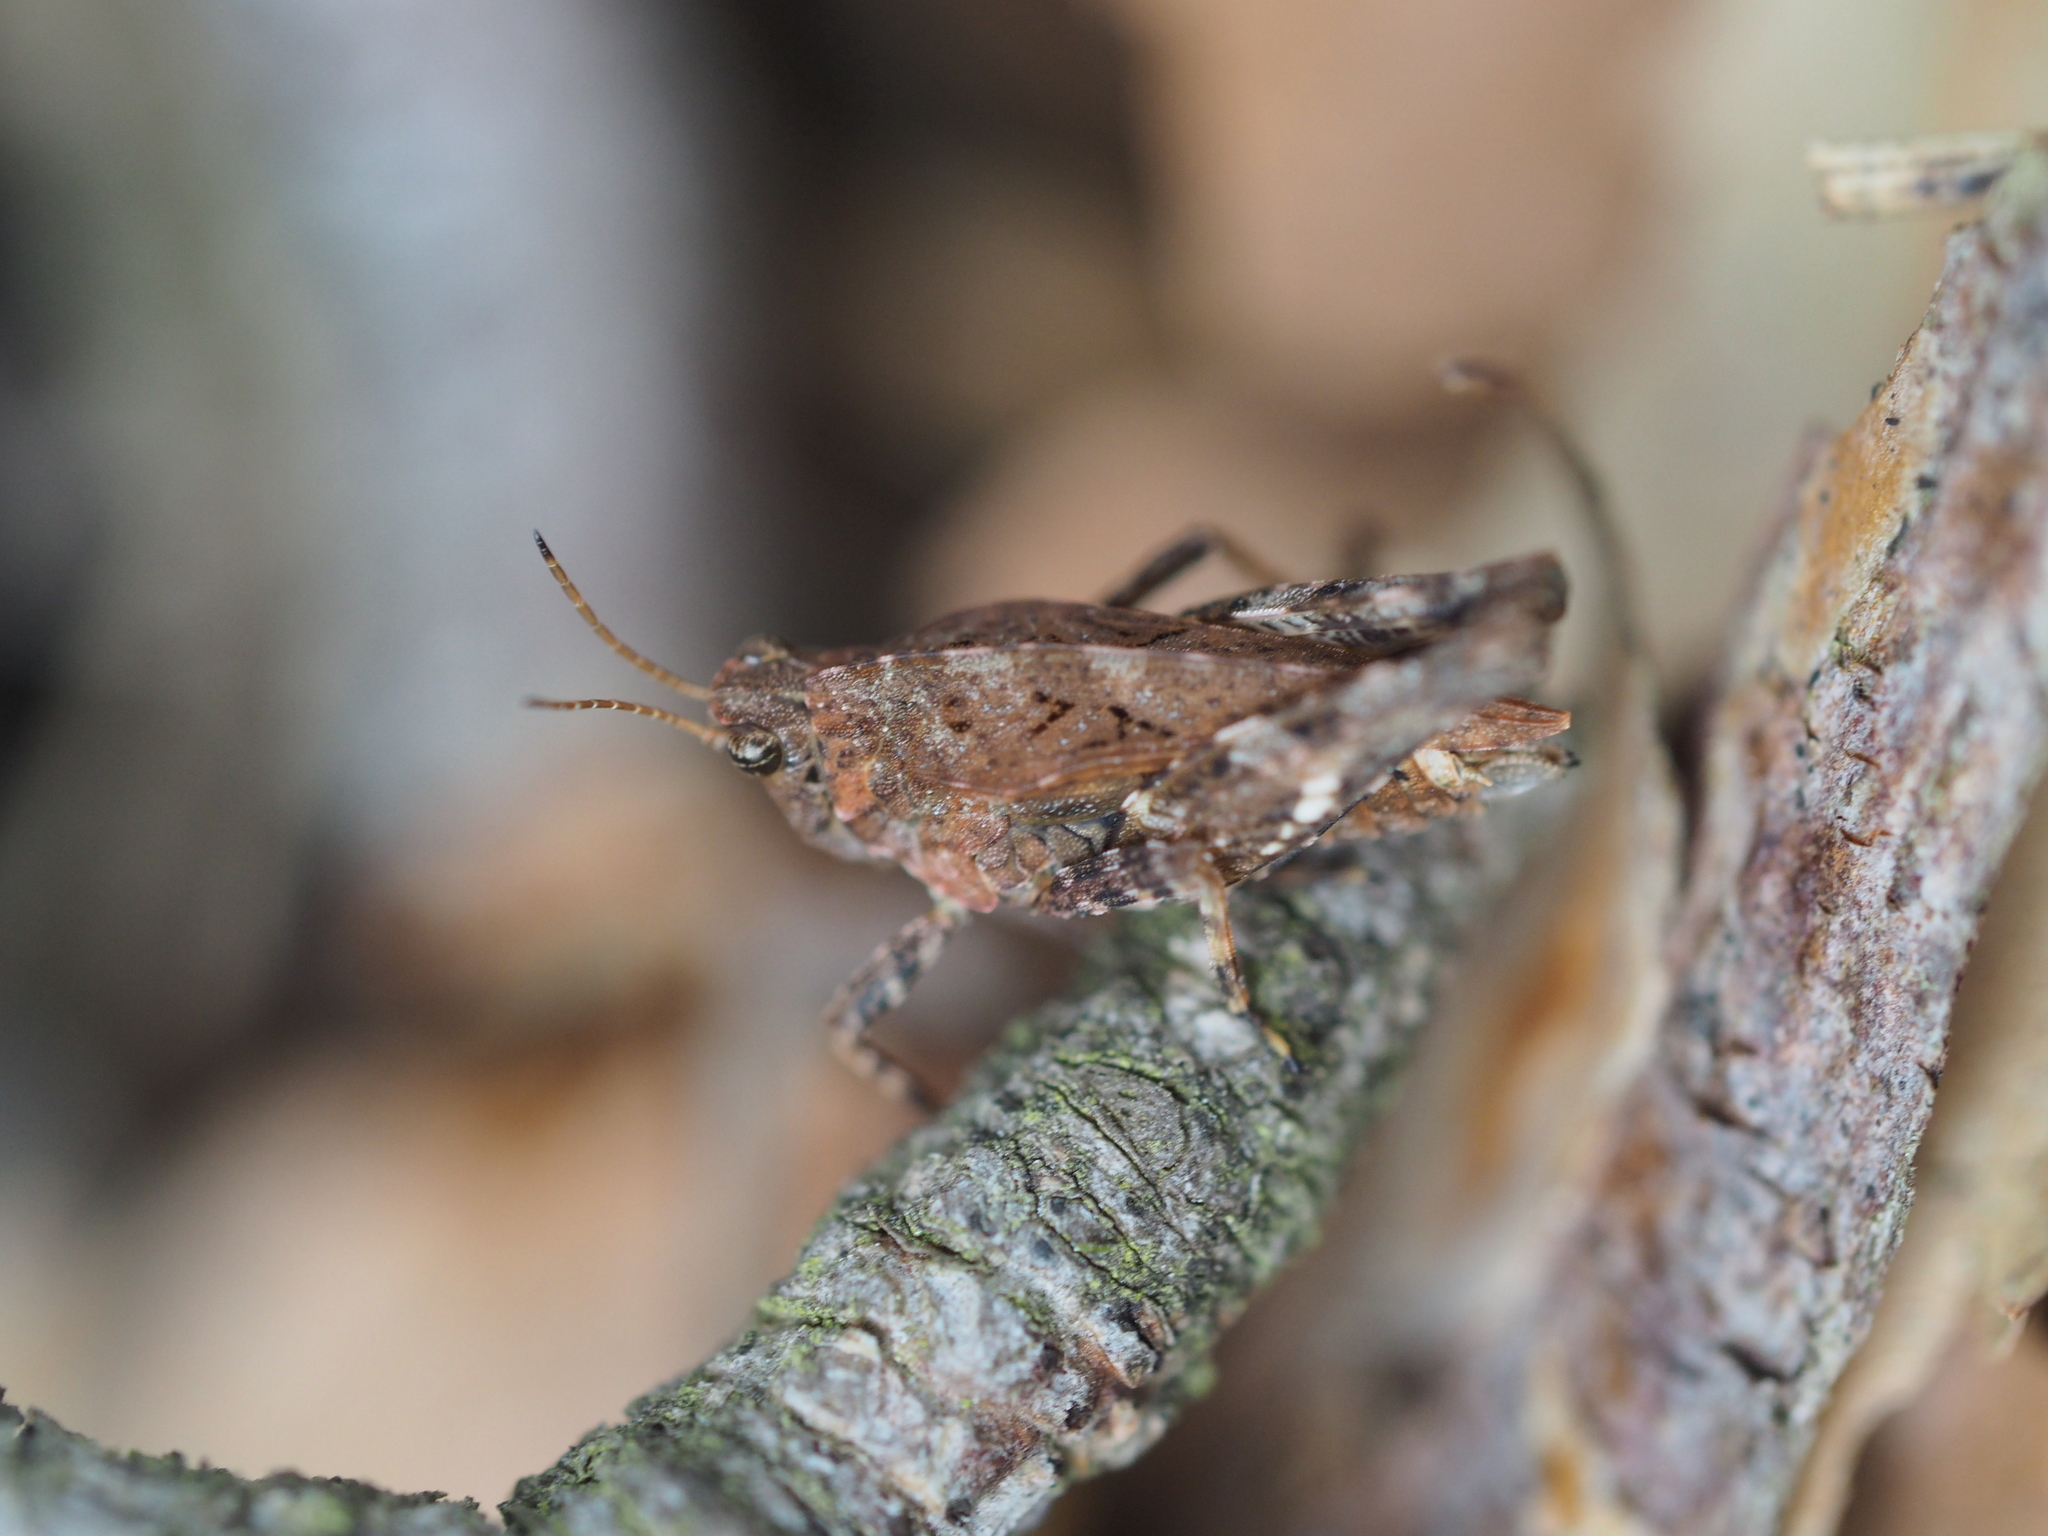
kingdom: Animalia
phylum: Arthropoda
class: Insecta
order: Orthoptera
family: Tetrigidae
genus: Tetrix
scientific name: Tetrix undulata
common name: Common groundhopper
